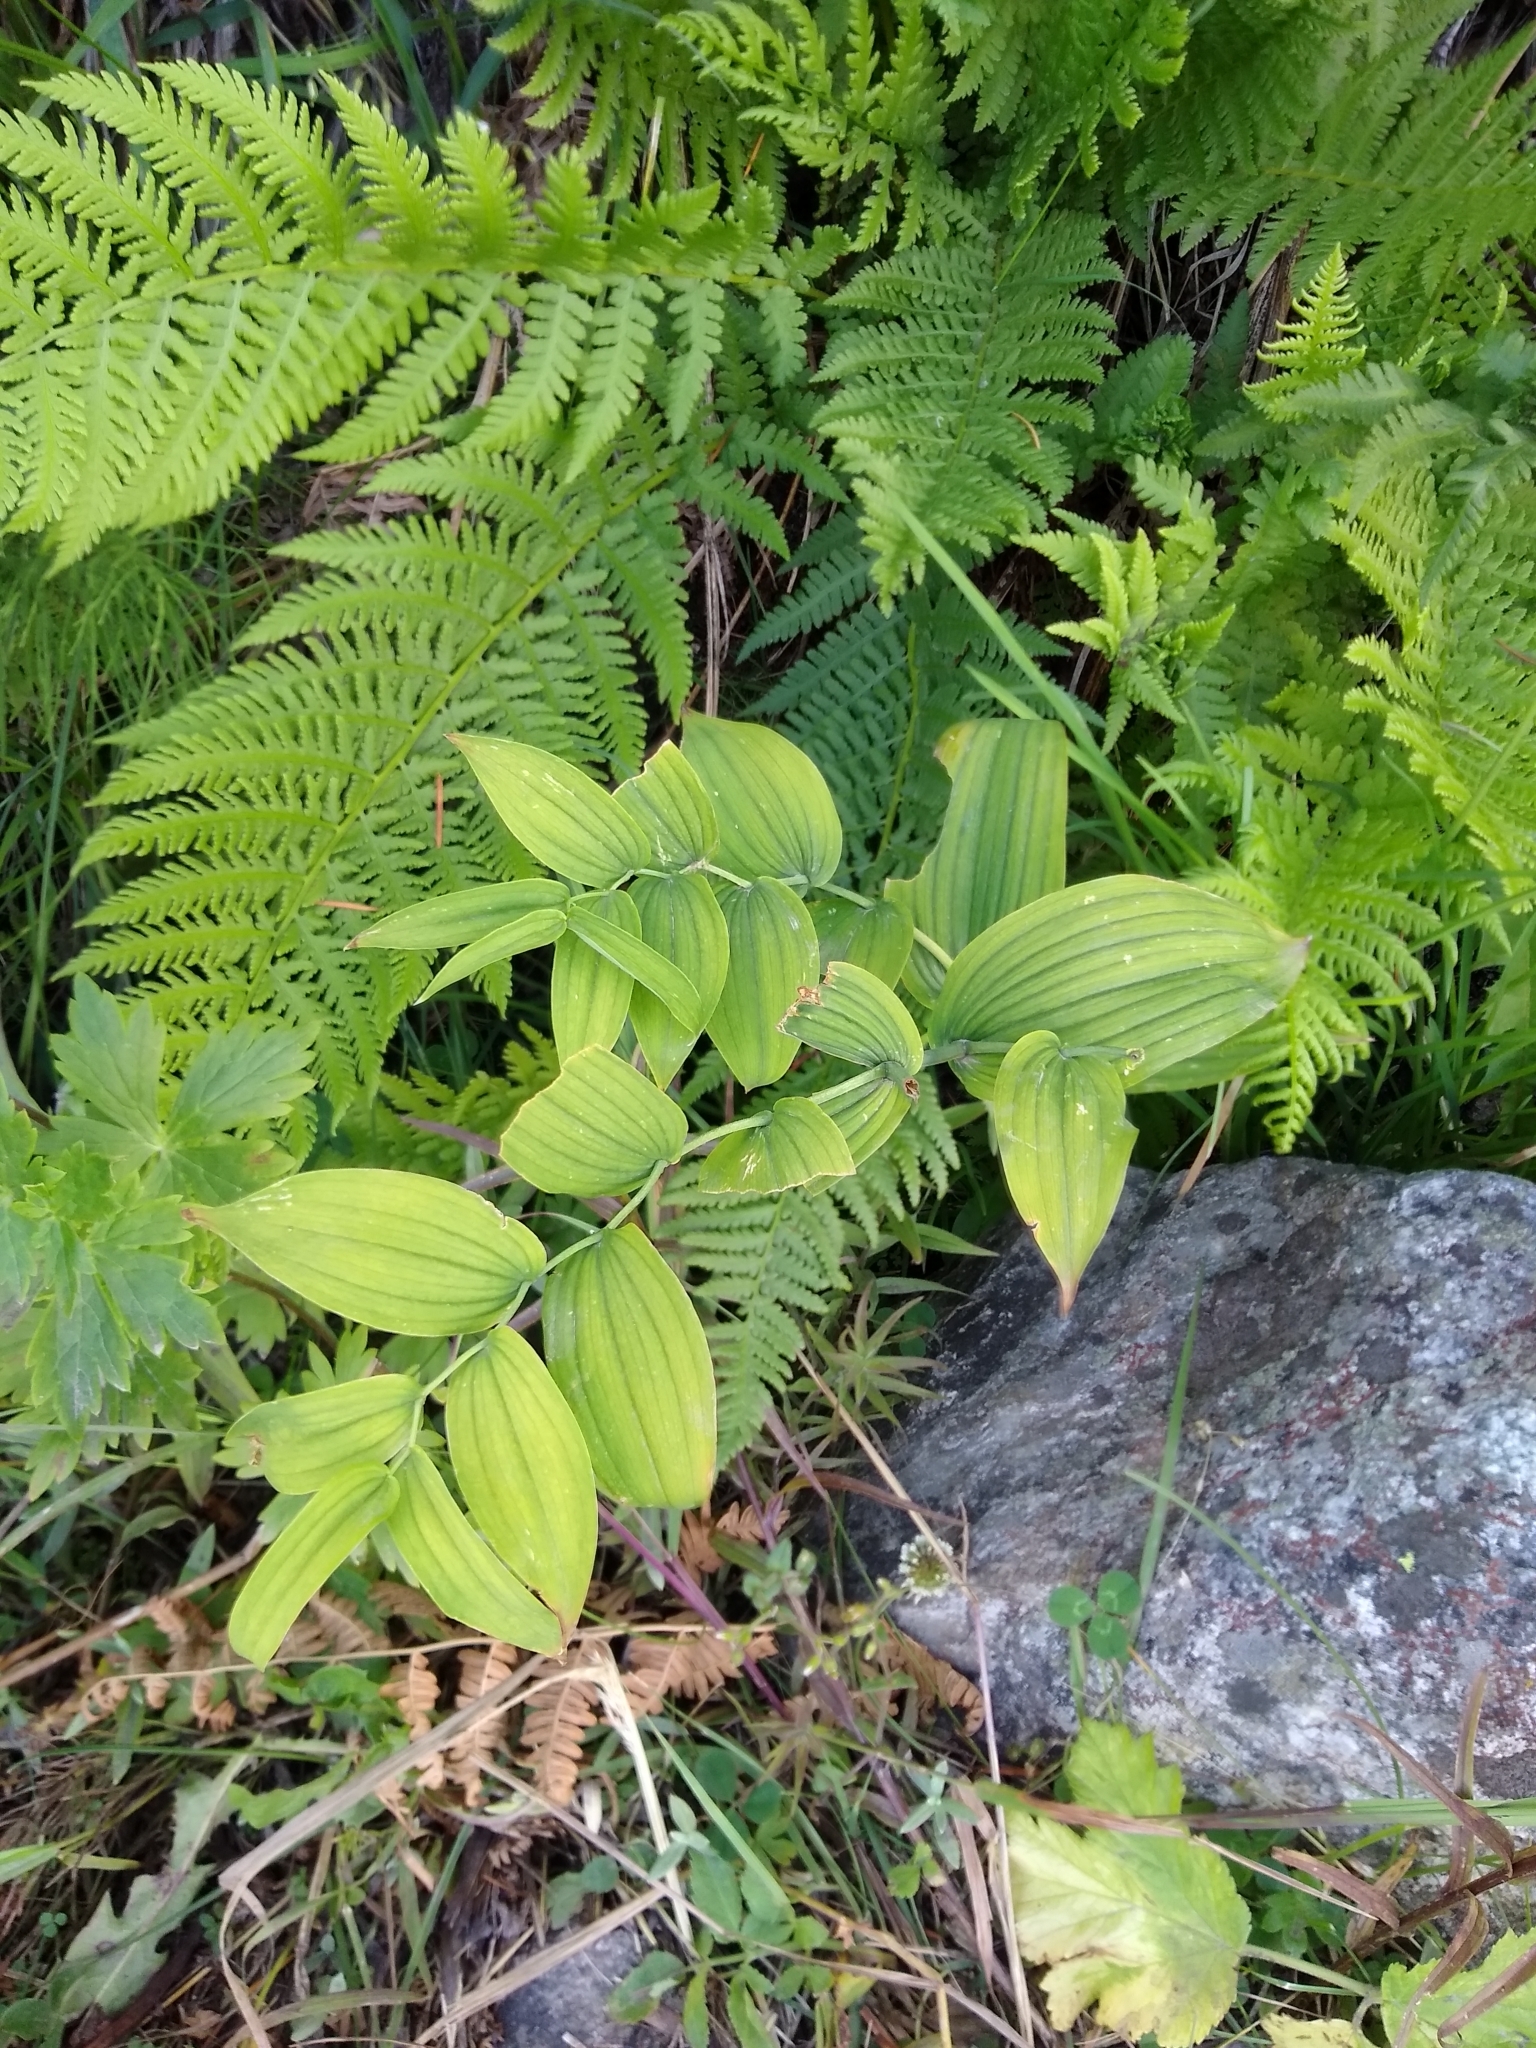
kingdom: Plantae
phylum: Tracheophyta
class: Liliopsida
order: Liliales
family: Liliaceae
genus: Streptopus
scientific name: Streptopus amplexifolius
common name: Clasp twisted stalk
